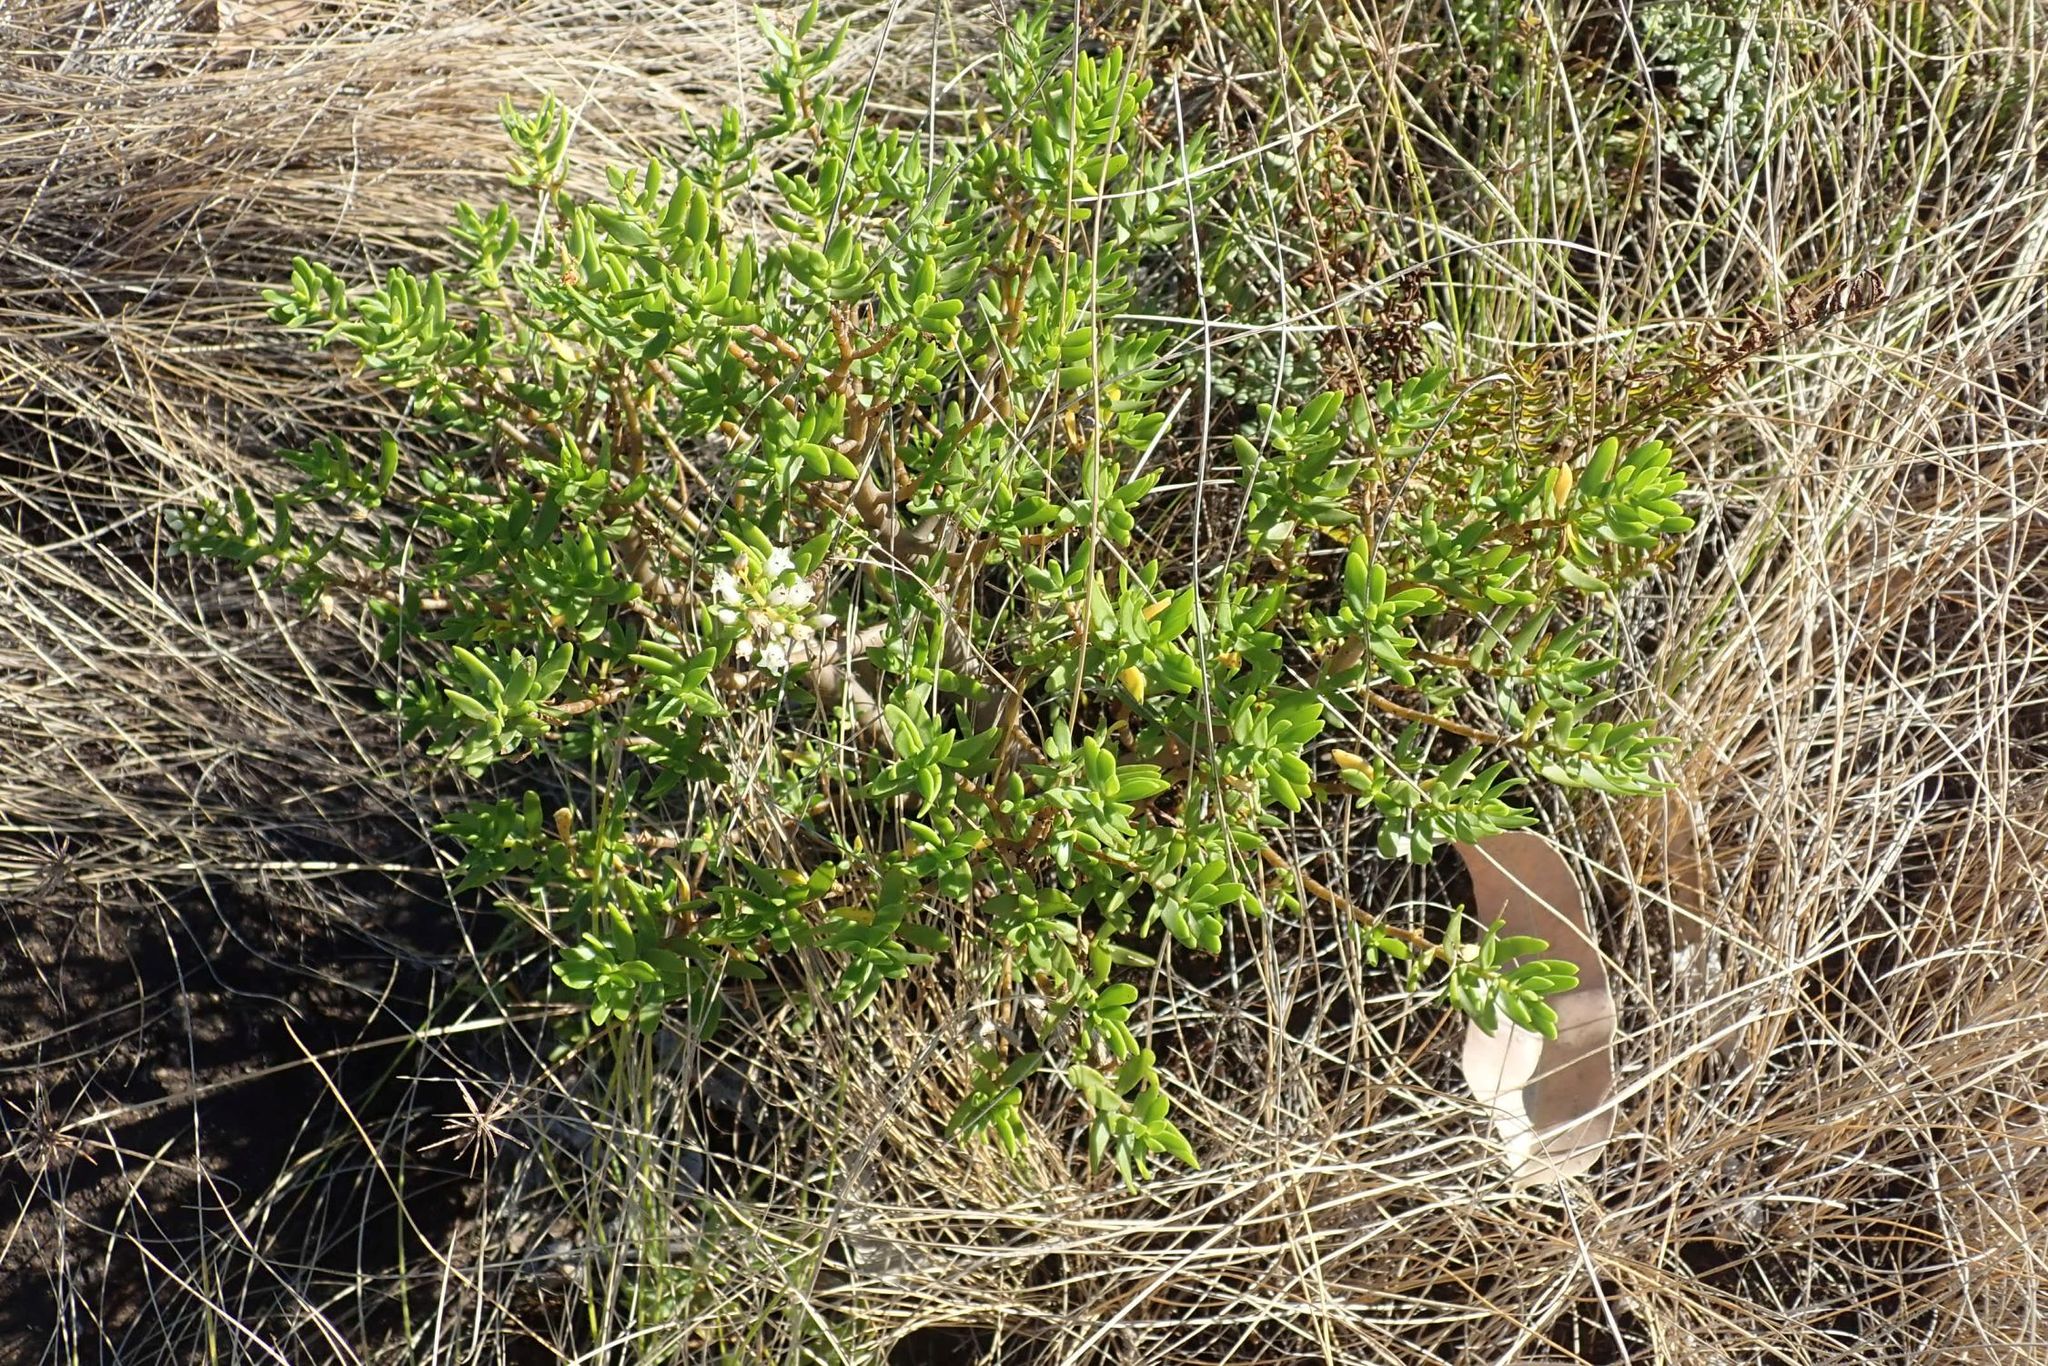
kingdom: Plantae
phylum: Tracheophyta
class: Magnoliopsida
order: Saxifragales
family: Crassulaceae
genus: Crassula
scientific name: Crassula sarcocaulis
